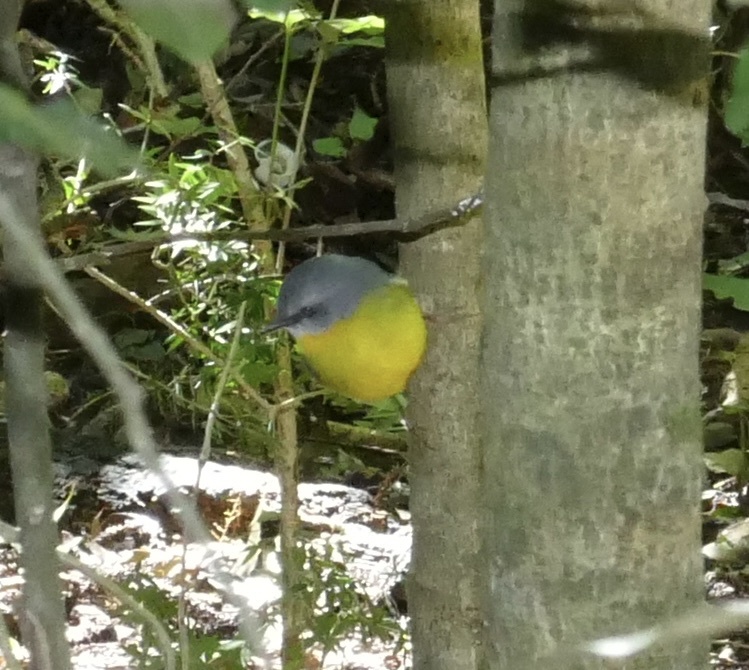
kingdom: Animalia
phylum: Chordata
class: Aves
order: Passeriformes
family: Petroicidae
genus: Eopsaltria
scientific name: Eopsaltria australis
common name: Eastern yellow robin
